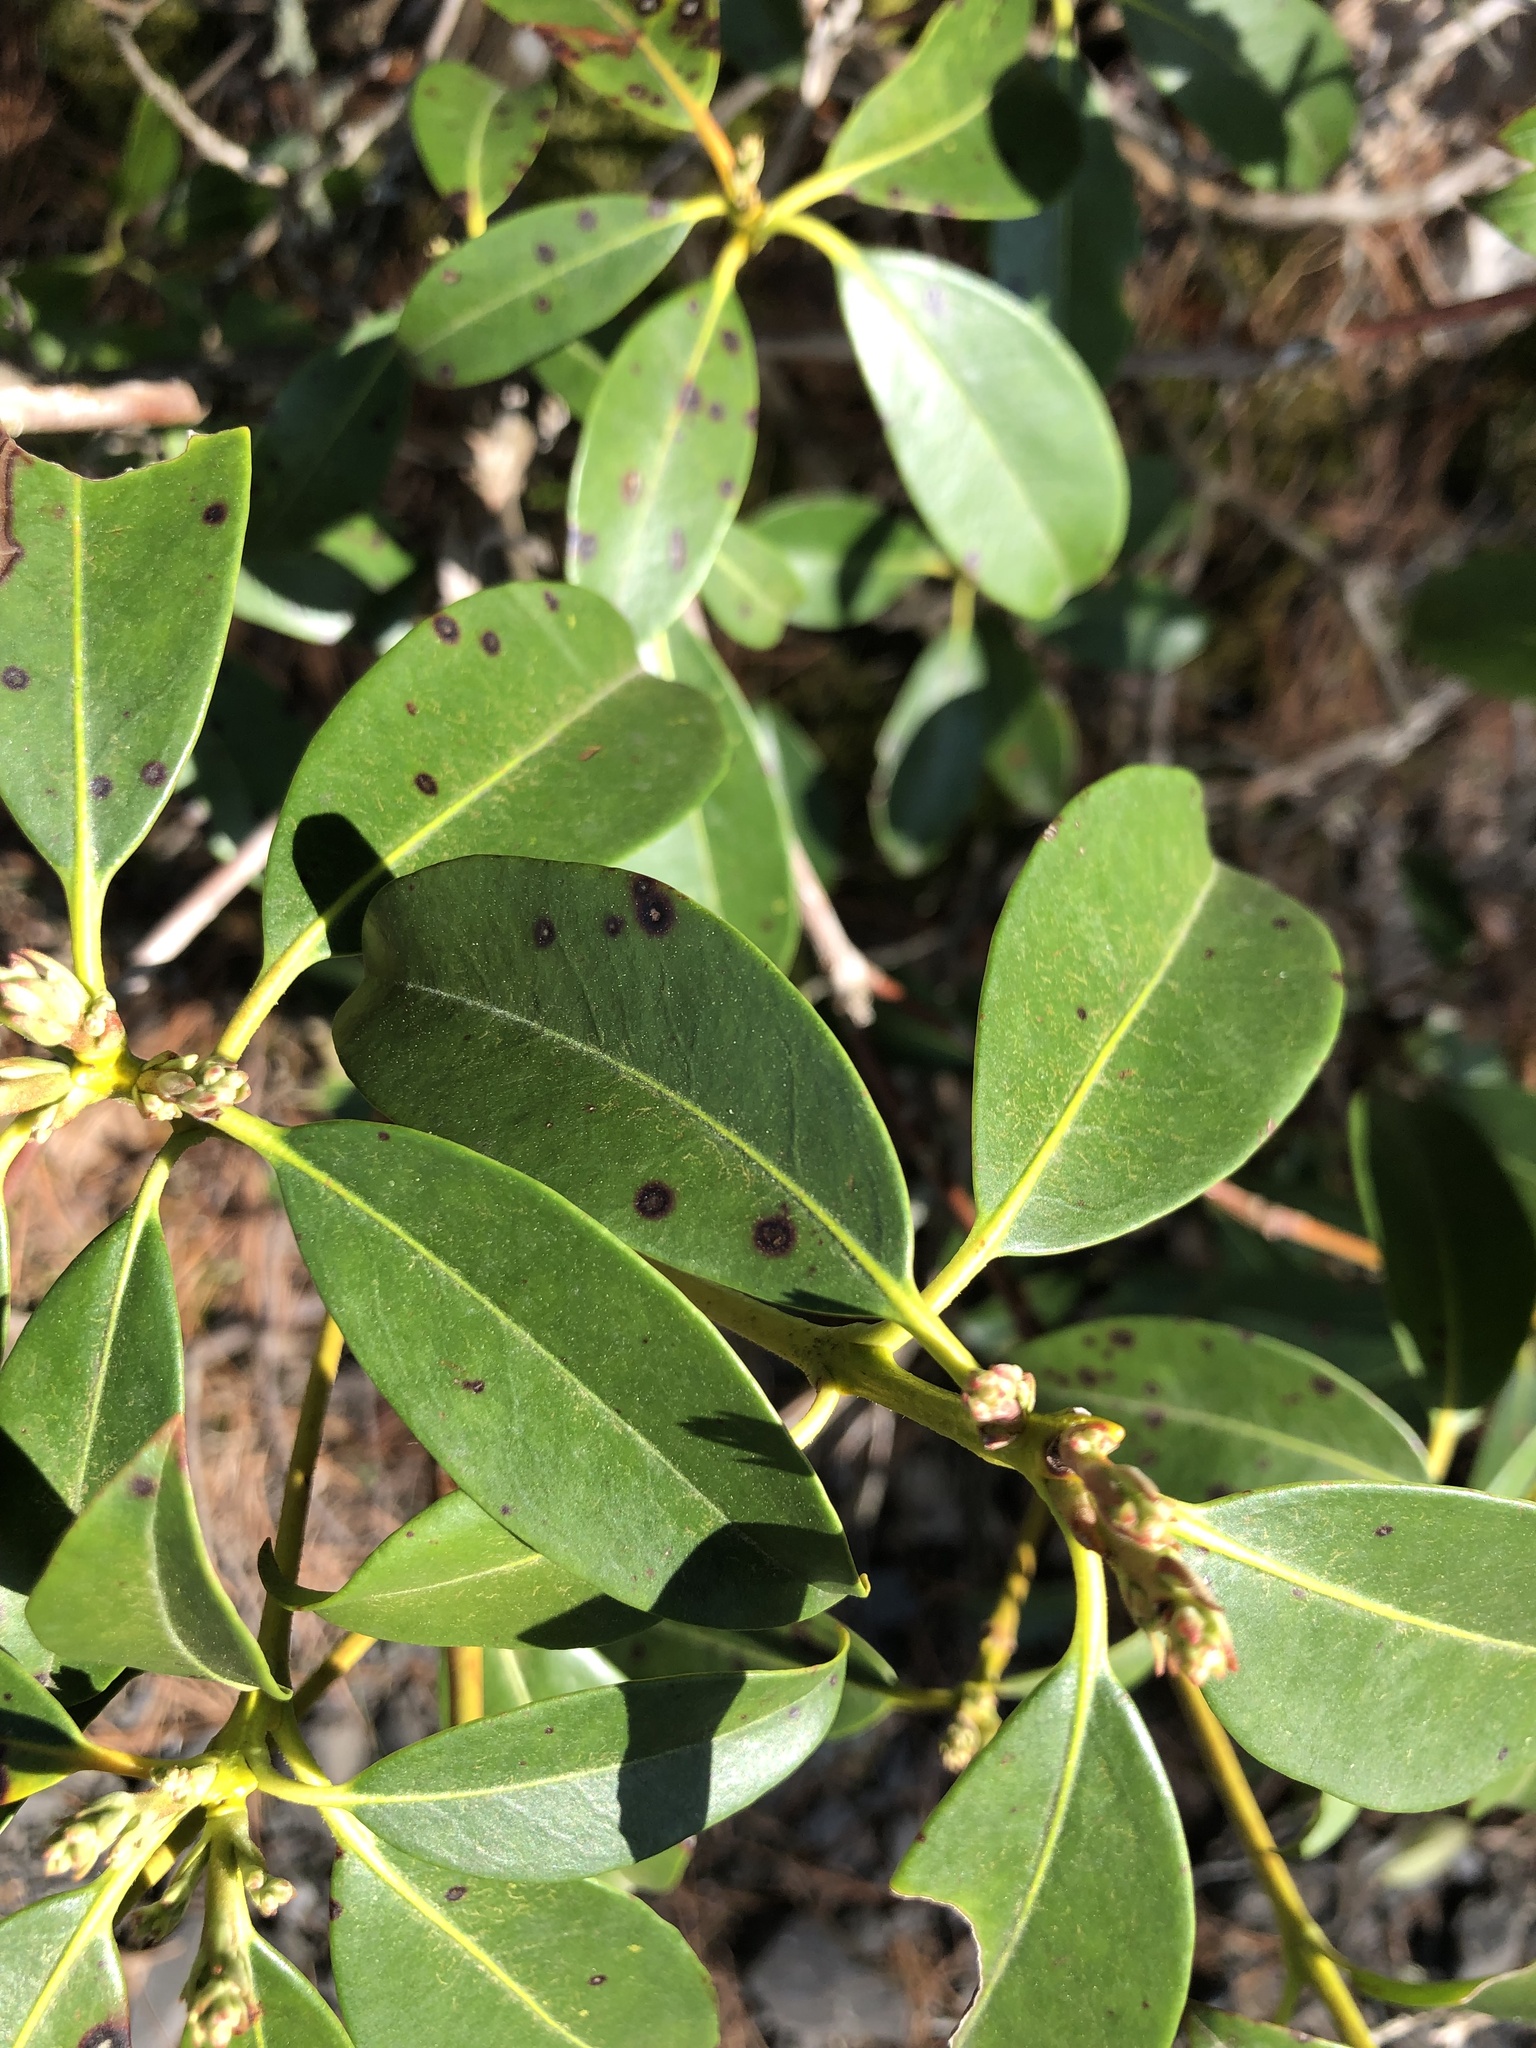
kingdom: Plantae
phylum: Tracheophyta
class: Magnoliopsida
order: Ericales
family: Ericaceae
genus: Kalmia
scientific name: Kalmia latifolia
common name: Mountain-laurel
